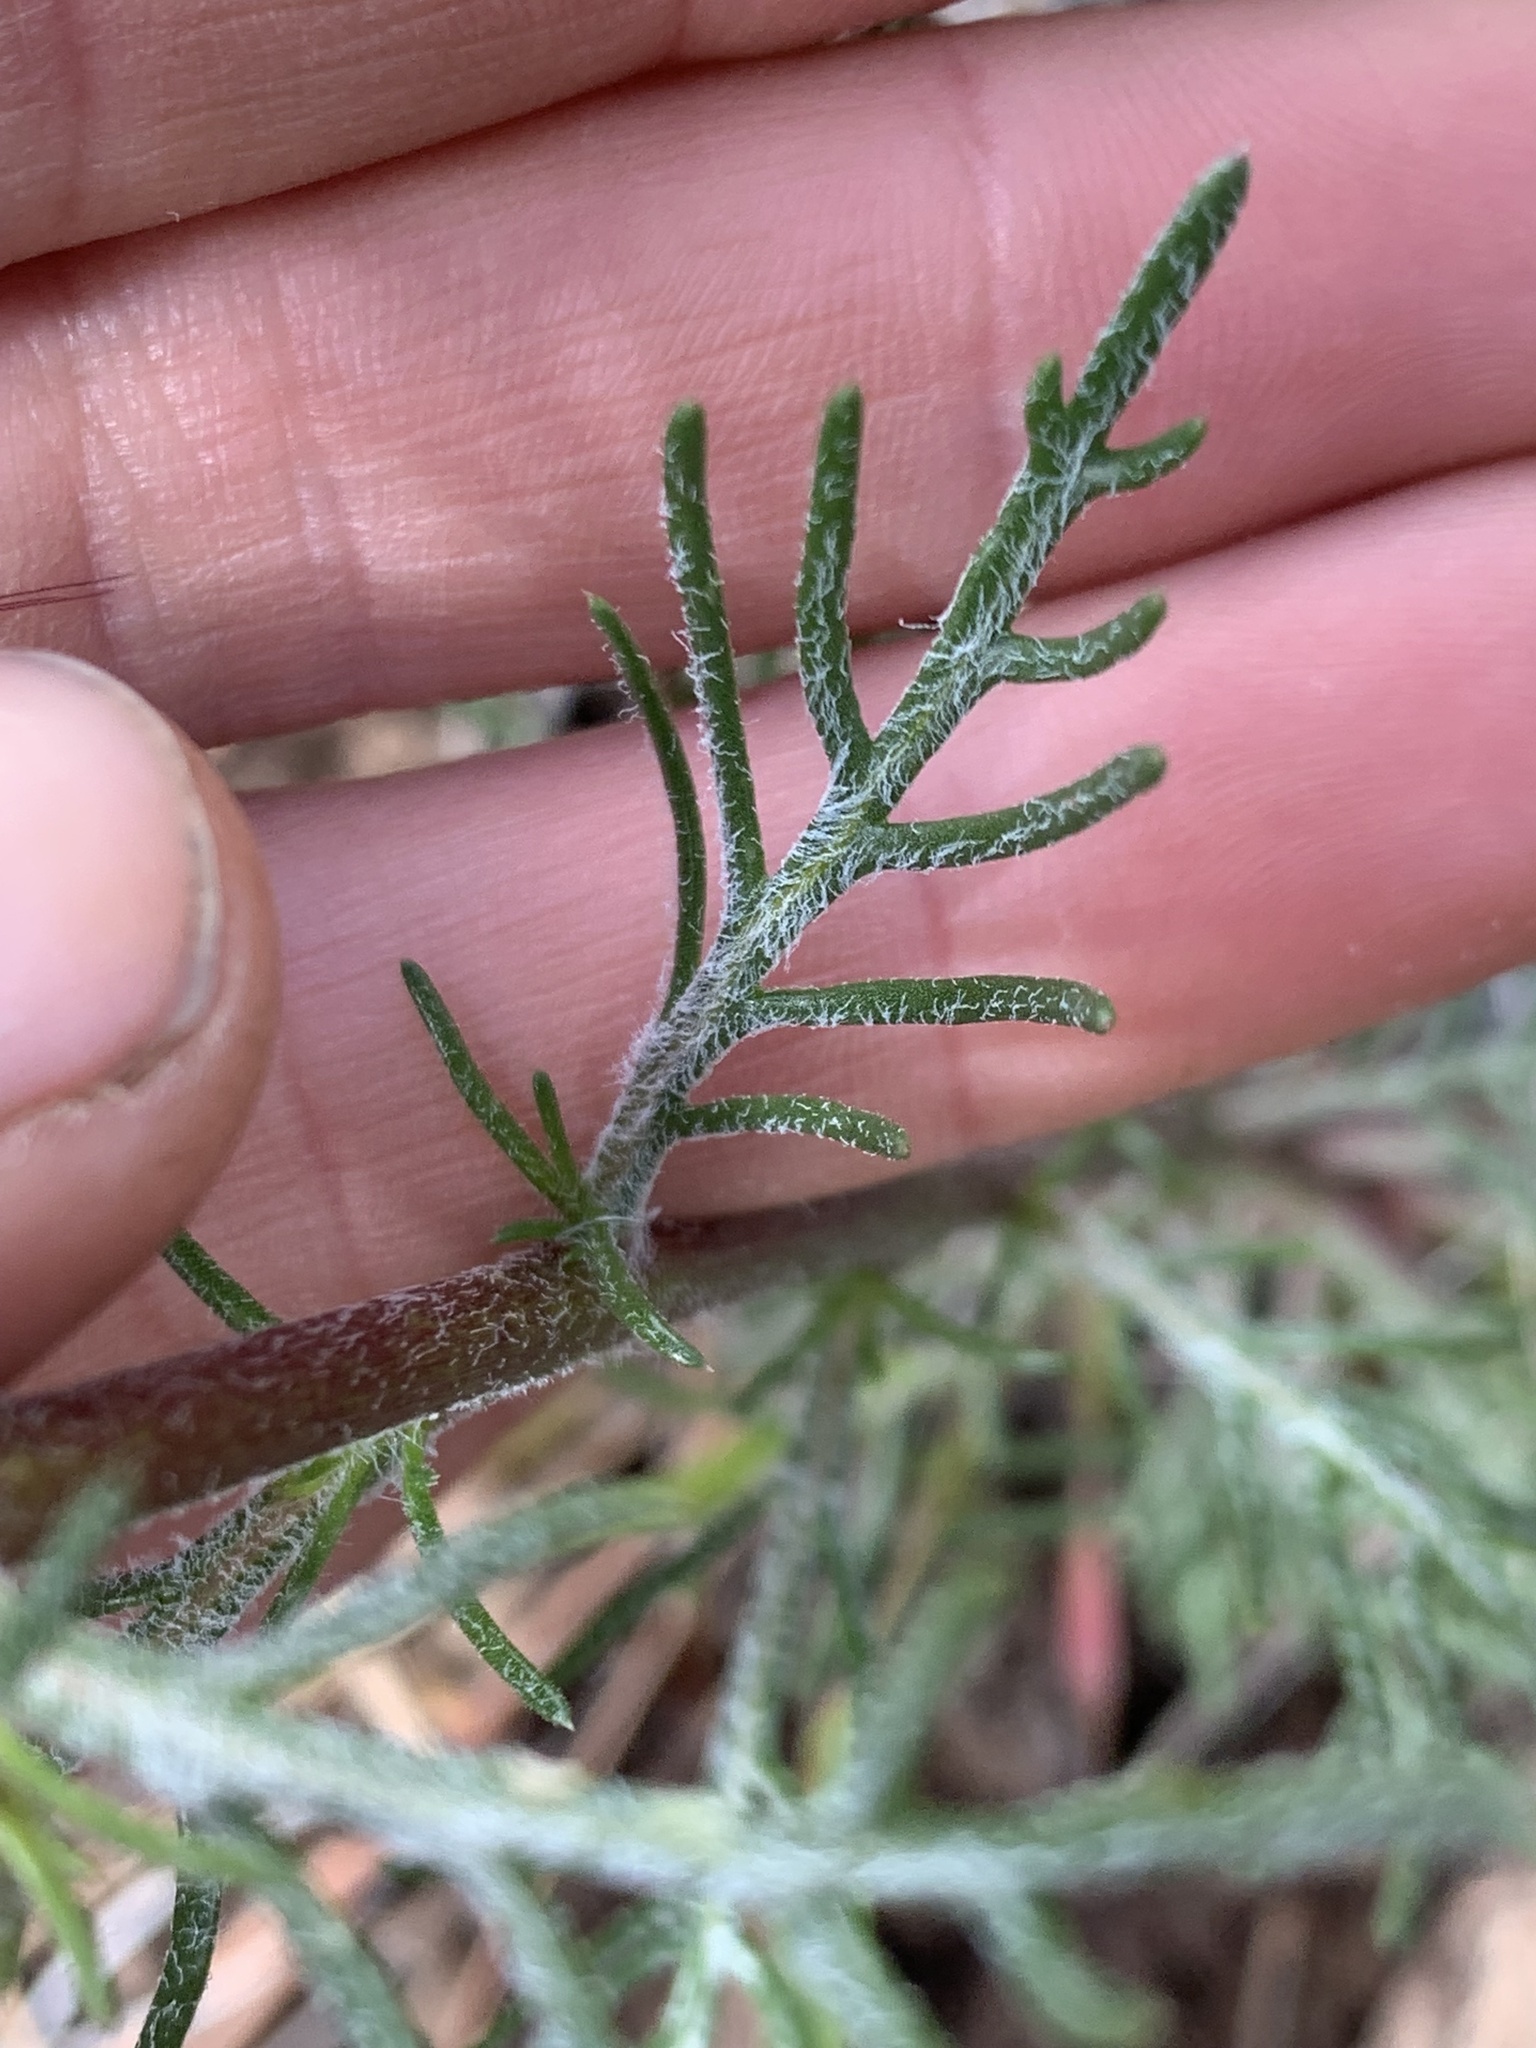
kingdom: Plantae
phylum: Tracheophyta
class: Magnoliopsida
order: Ericales
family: Polemoniaceae
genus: Ipomopsis
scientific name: Ipomopsis aggregata
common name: Scarlet gilia
